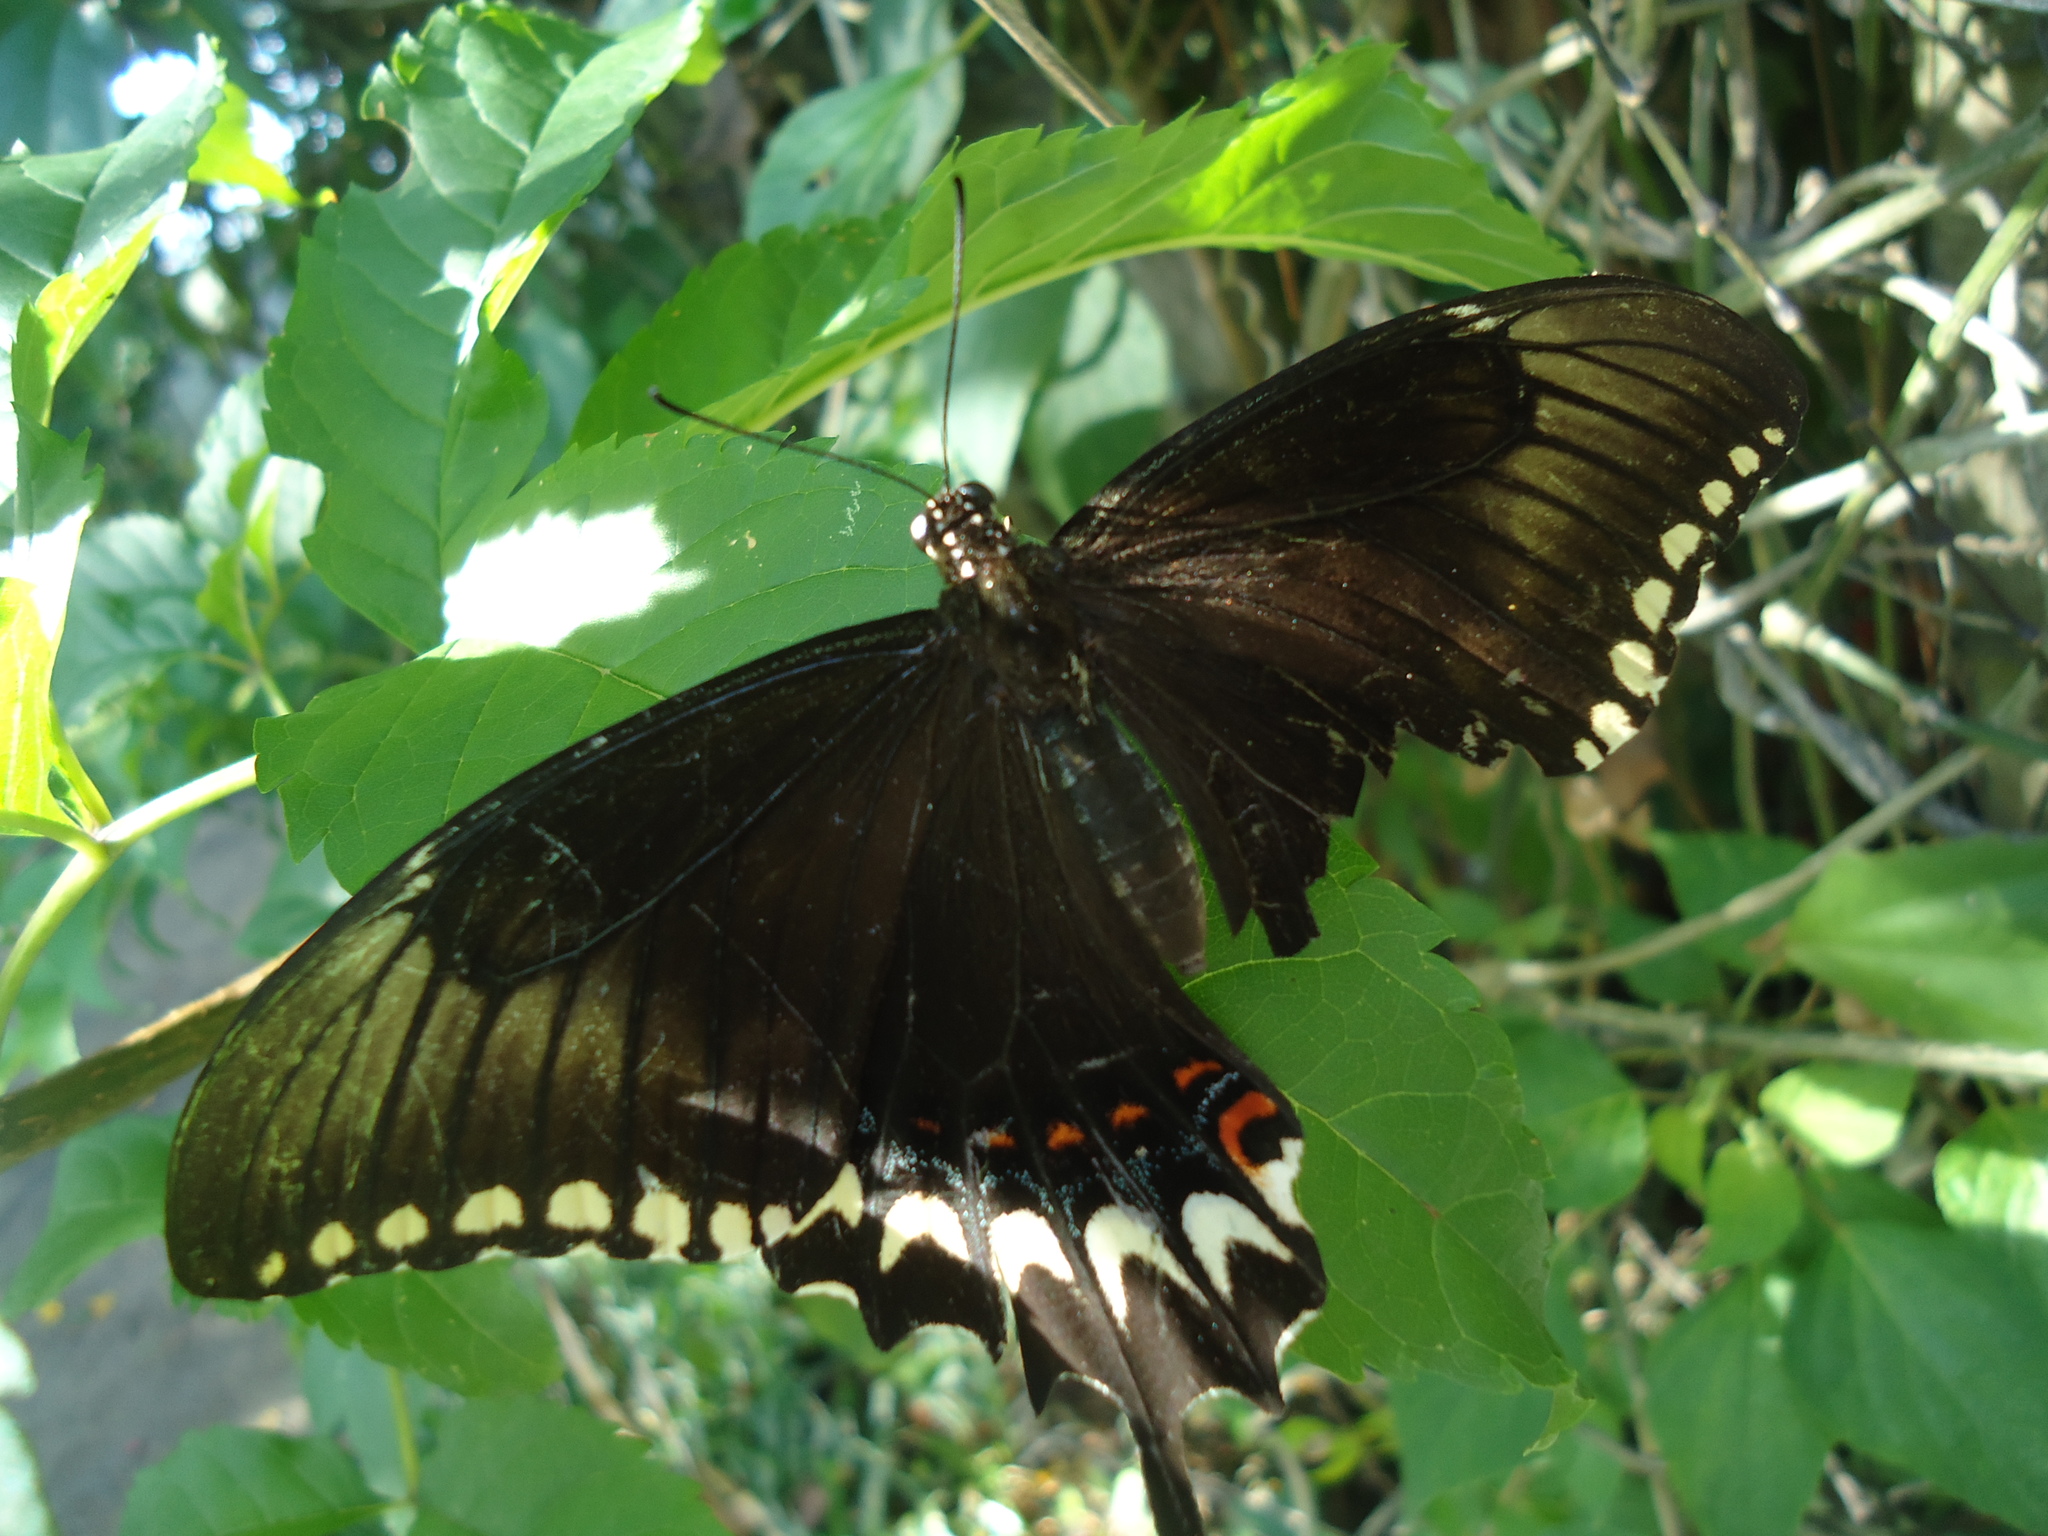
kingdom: Animalia
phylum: Arthropoda
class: Insecta
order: Lepidoptera
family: Papilionidae
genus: Papilio
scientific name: Papilio astyalus
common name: Astyalus swallowtail
